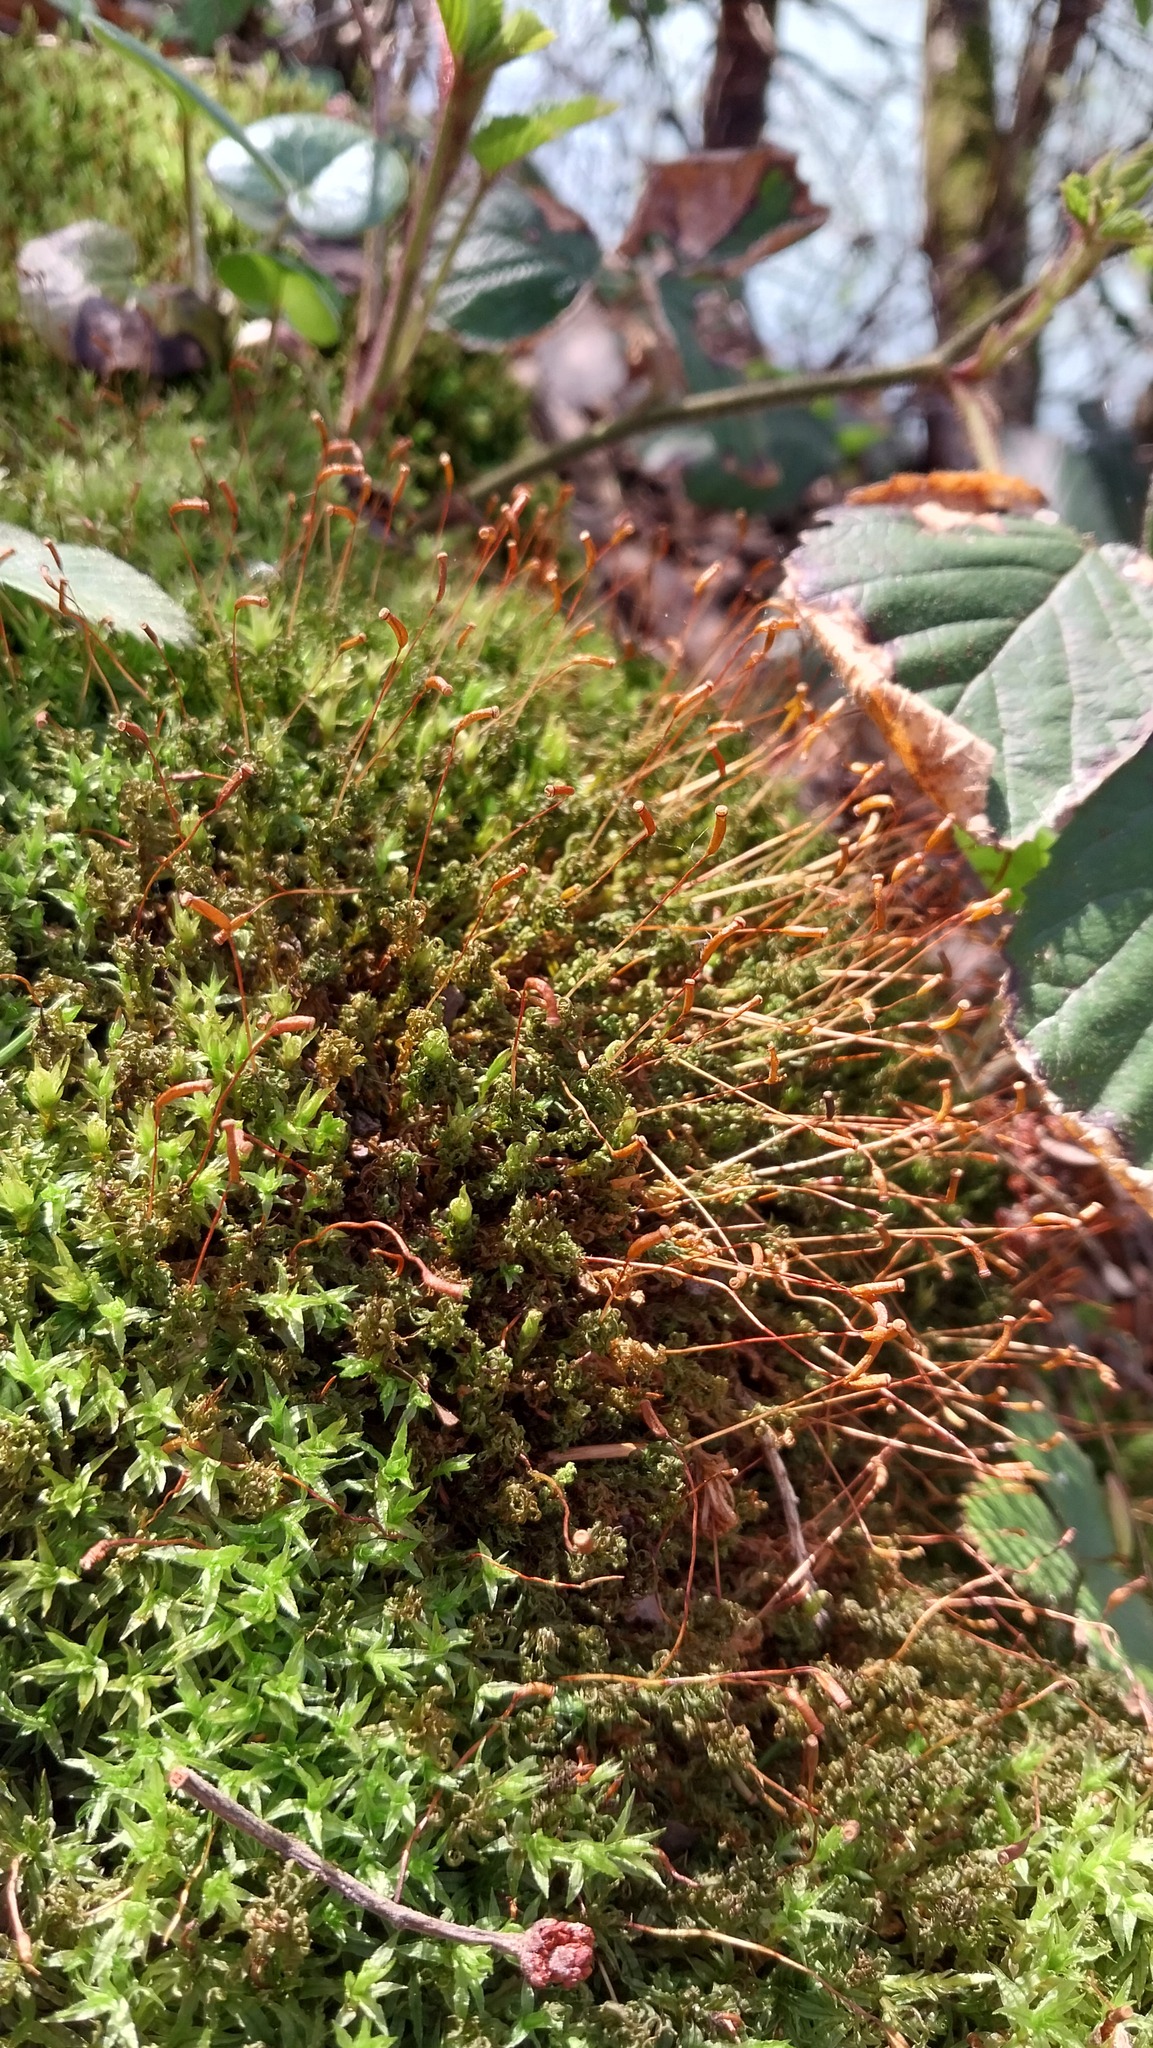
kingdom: Plantae
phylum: Bryophyta
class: Polytrichopsida
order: Polytrichales
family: Polytrichaceae
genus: Atrichum
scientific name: Atrichum undulatum
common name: Common smoothcap
